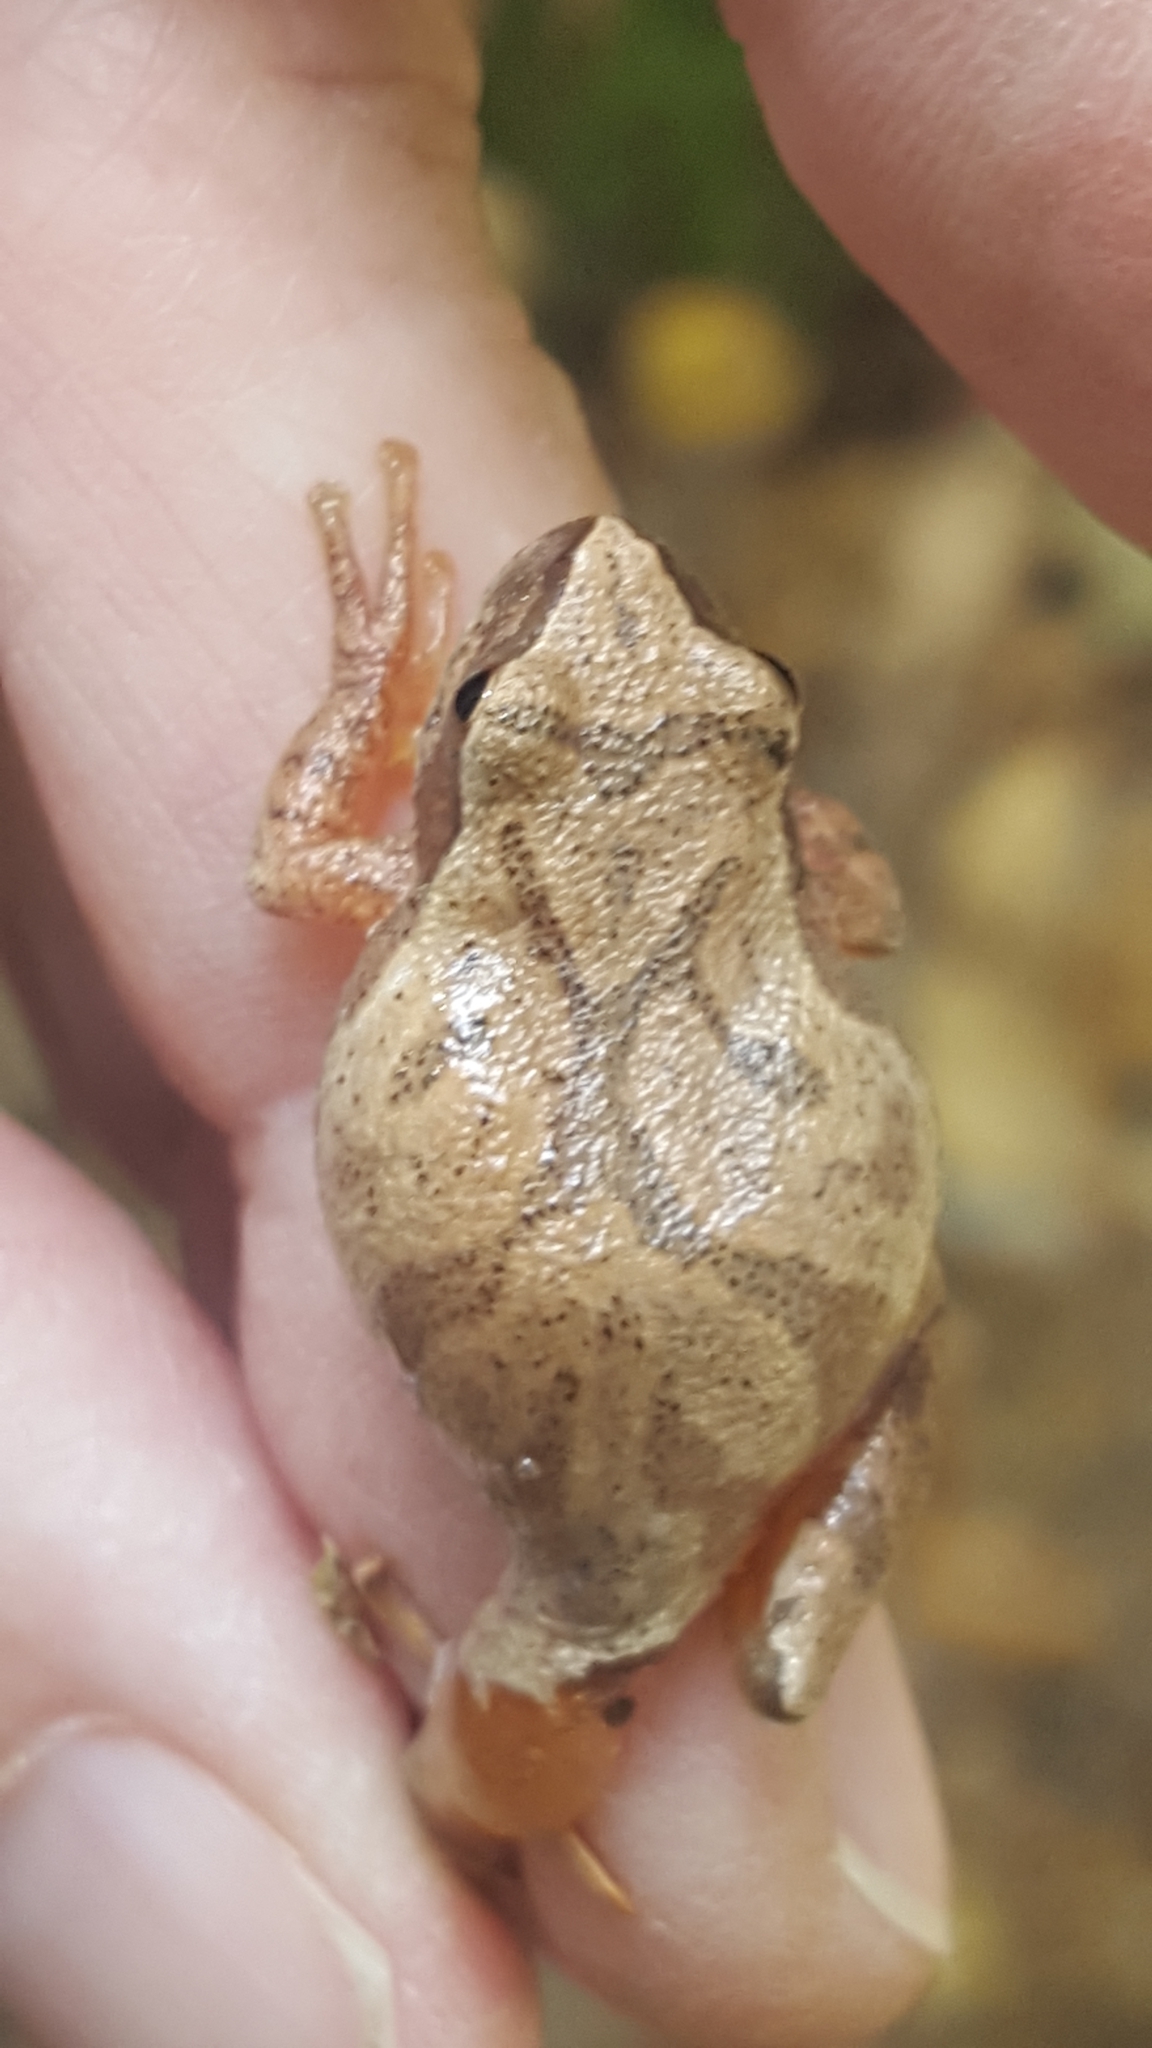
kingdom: Animalia
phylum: Chordata
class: Amphibia
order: Anura
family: Hylidae
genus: Pseudacris
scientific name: Pseudacris crucifer
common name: Spring peeper
